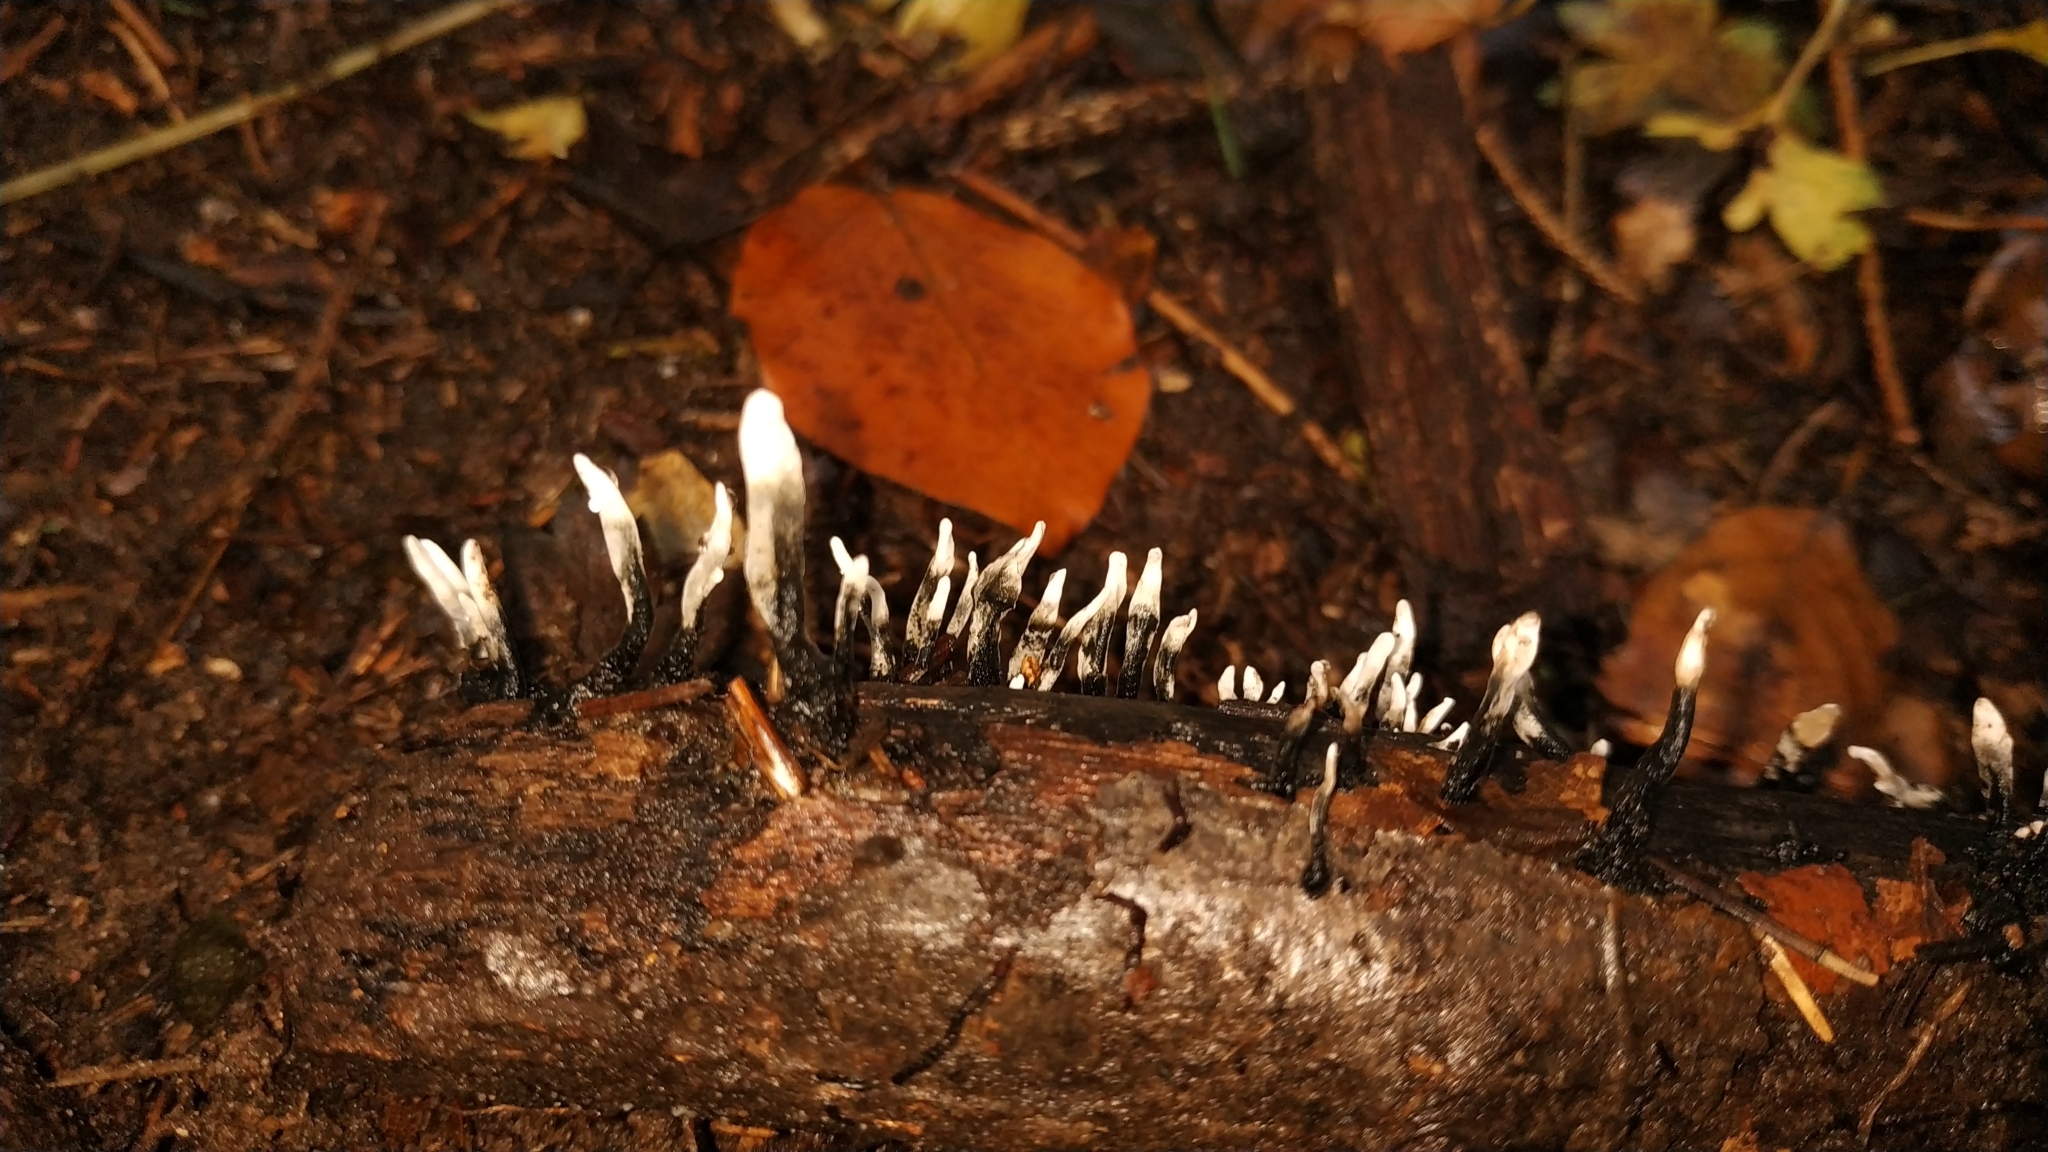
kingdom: Fungi
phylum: Ascomycota
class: Sordariomycetes
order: Xylariales
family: Xylariaceae
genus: Xylaria
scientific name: Xylaria hypoxylon
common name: Candle-snuff fungus
